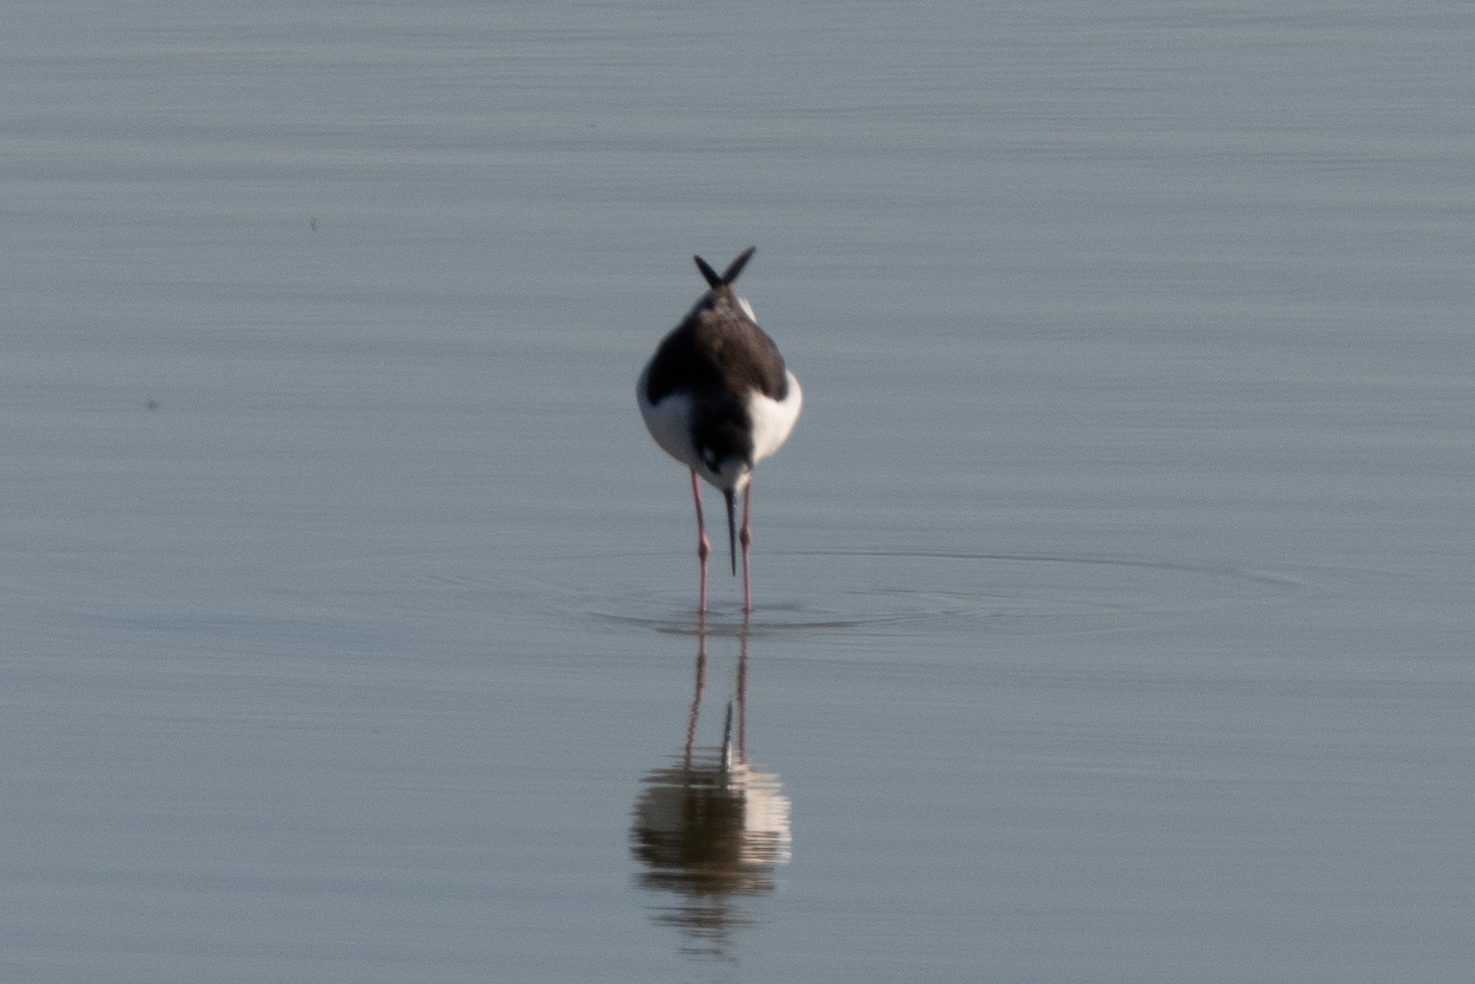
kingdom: Animalia
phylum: Chordata
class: Aves
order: Charadriiformes
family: Recurvirostridae
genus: Himantopus
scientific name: Himantopus mexicanus
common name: Black-necked stilt
